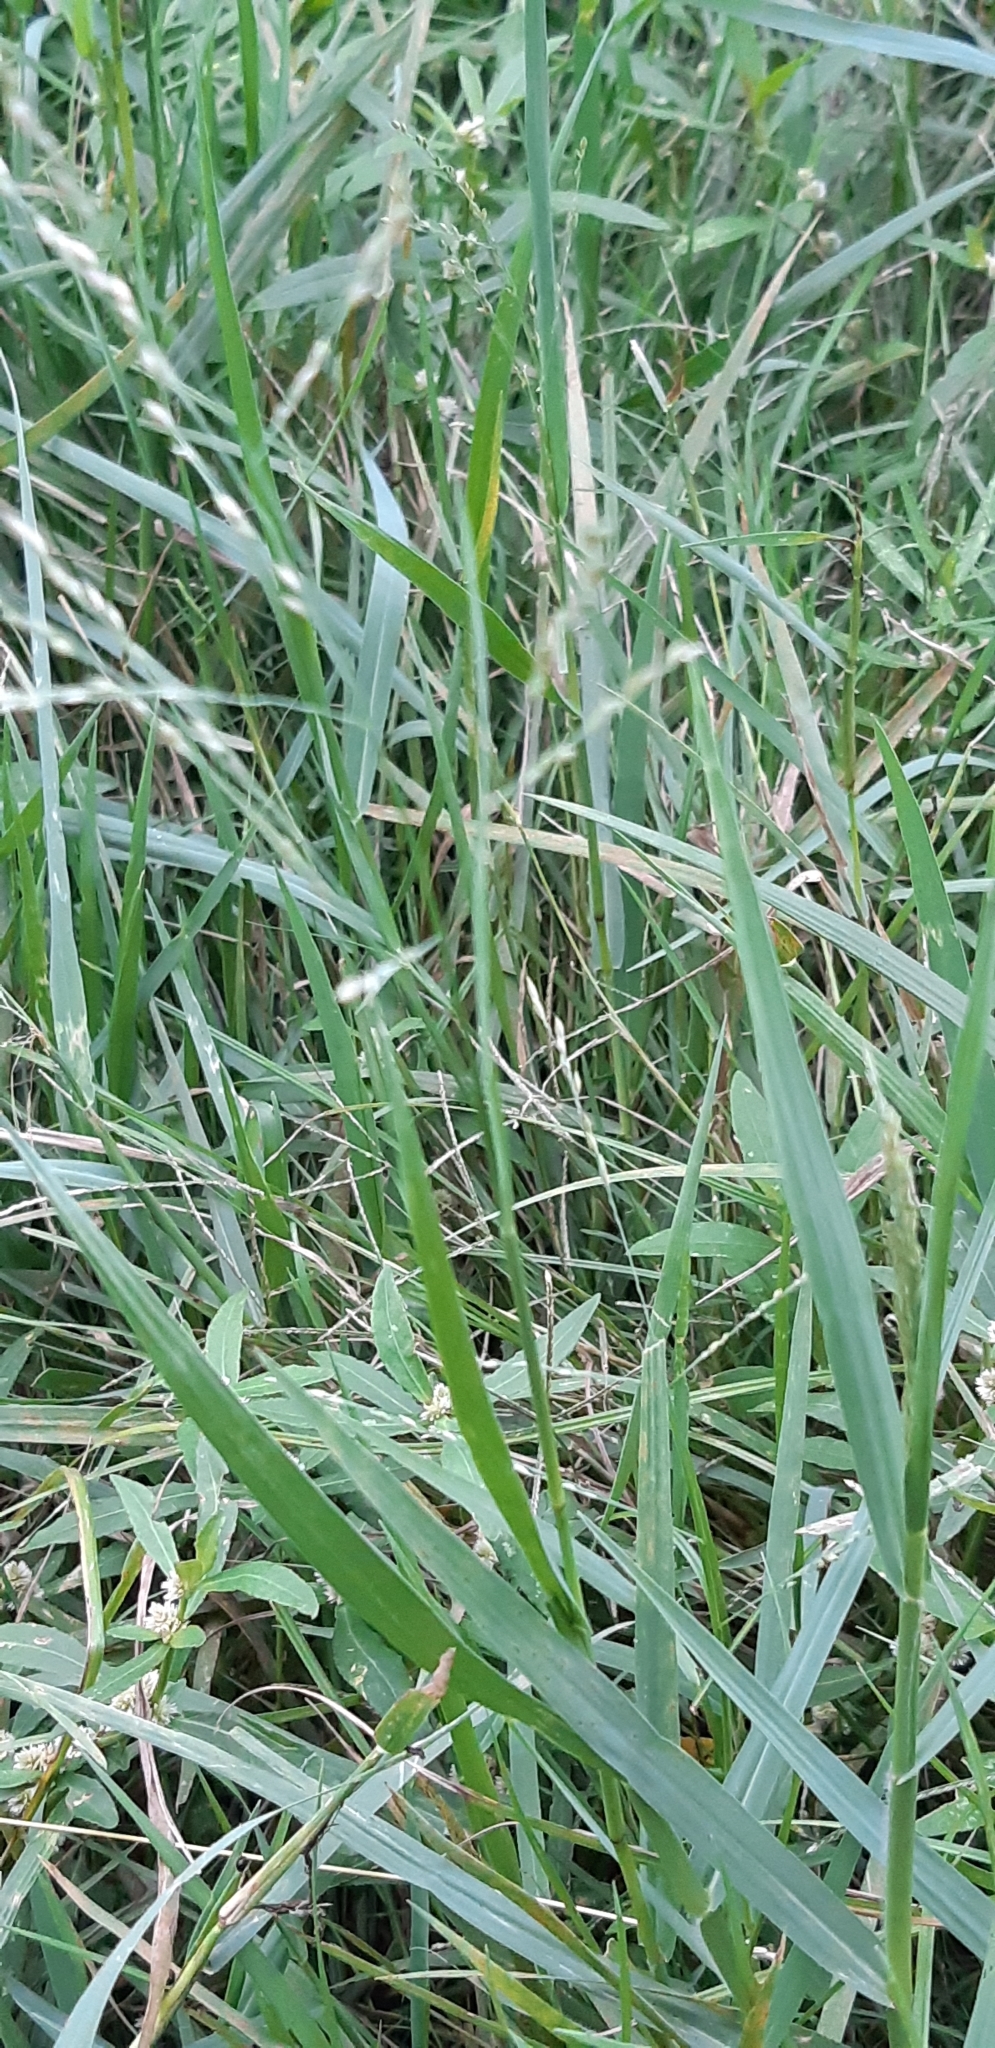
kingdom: Plantae
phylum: Tracheophyta
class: Liliopsida
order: Poales
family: Poaceae
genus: Panicum
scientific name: Panicum repens
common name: Torpedo grass
